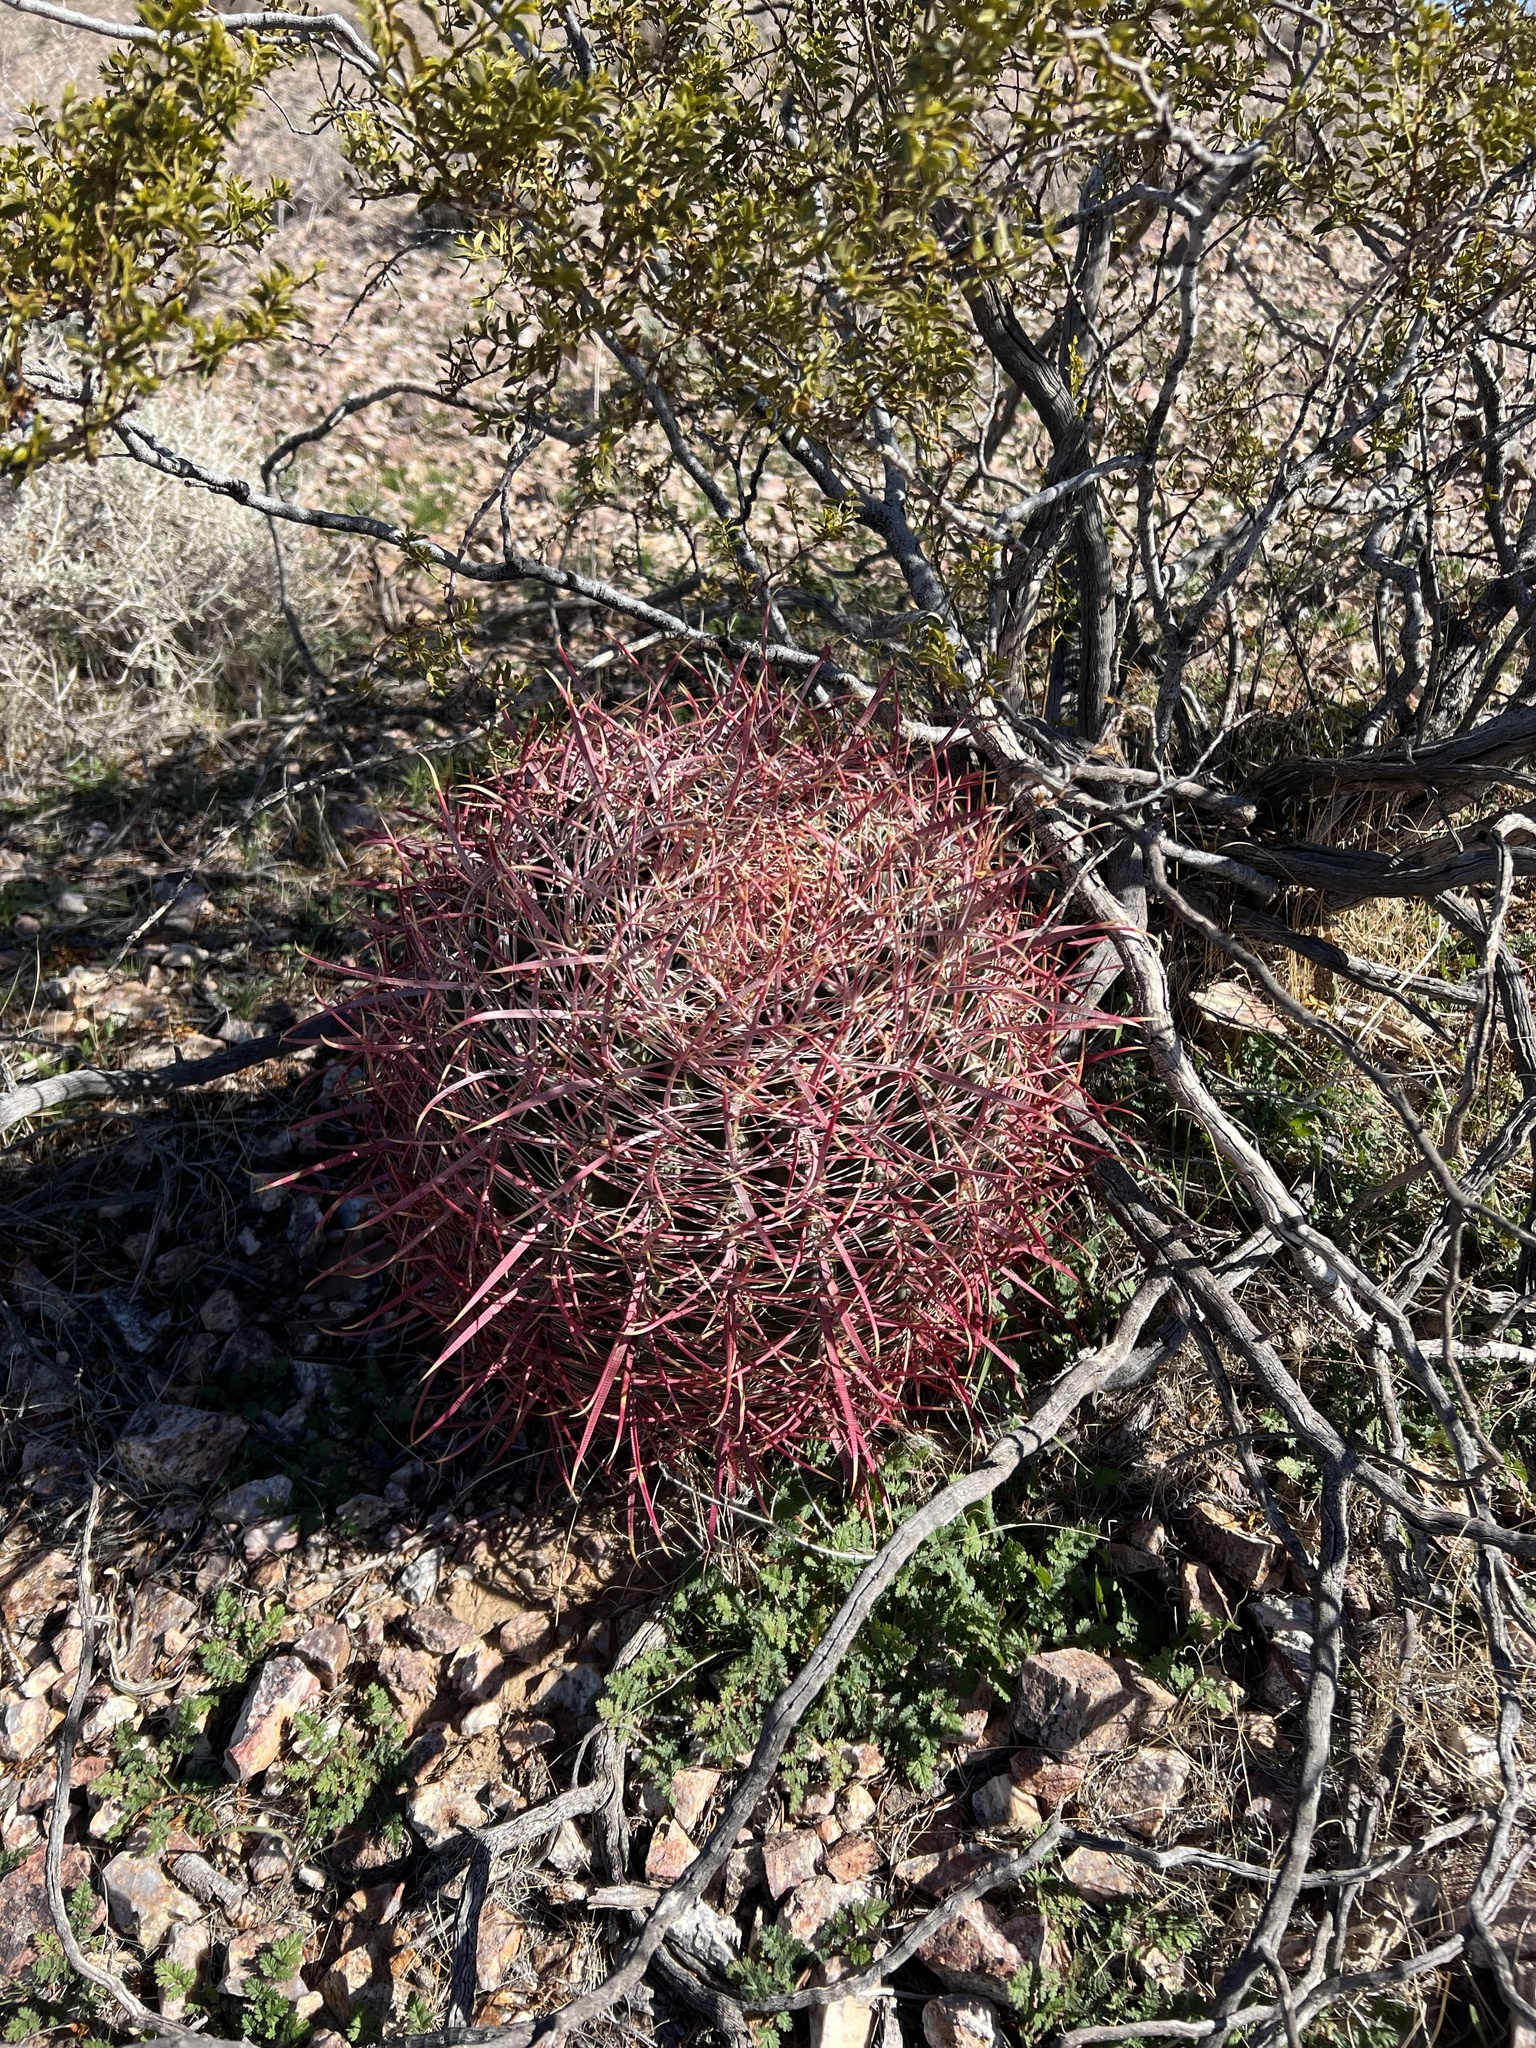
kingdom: Plantae
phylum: Tracheophyta
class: Magnoliopsida
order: Caryophyllales
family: Cactaceae
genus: Ferocactus
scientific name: Ferocactus cylindraceus
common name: California barrel cactus
